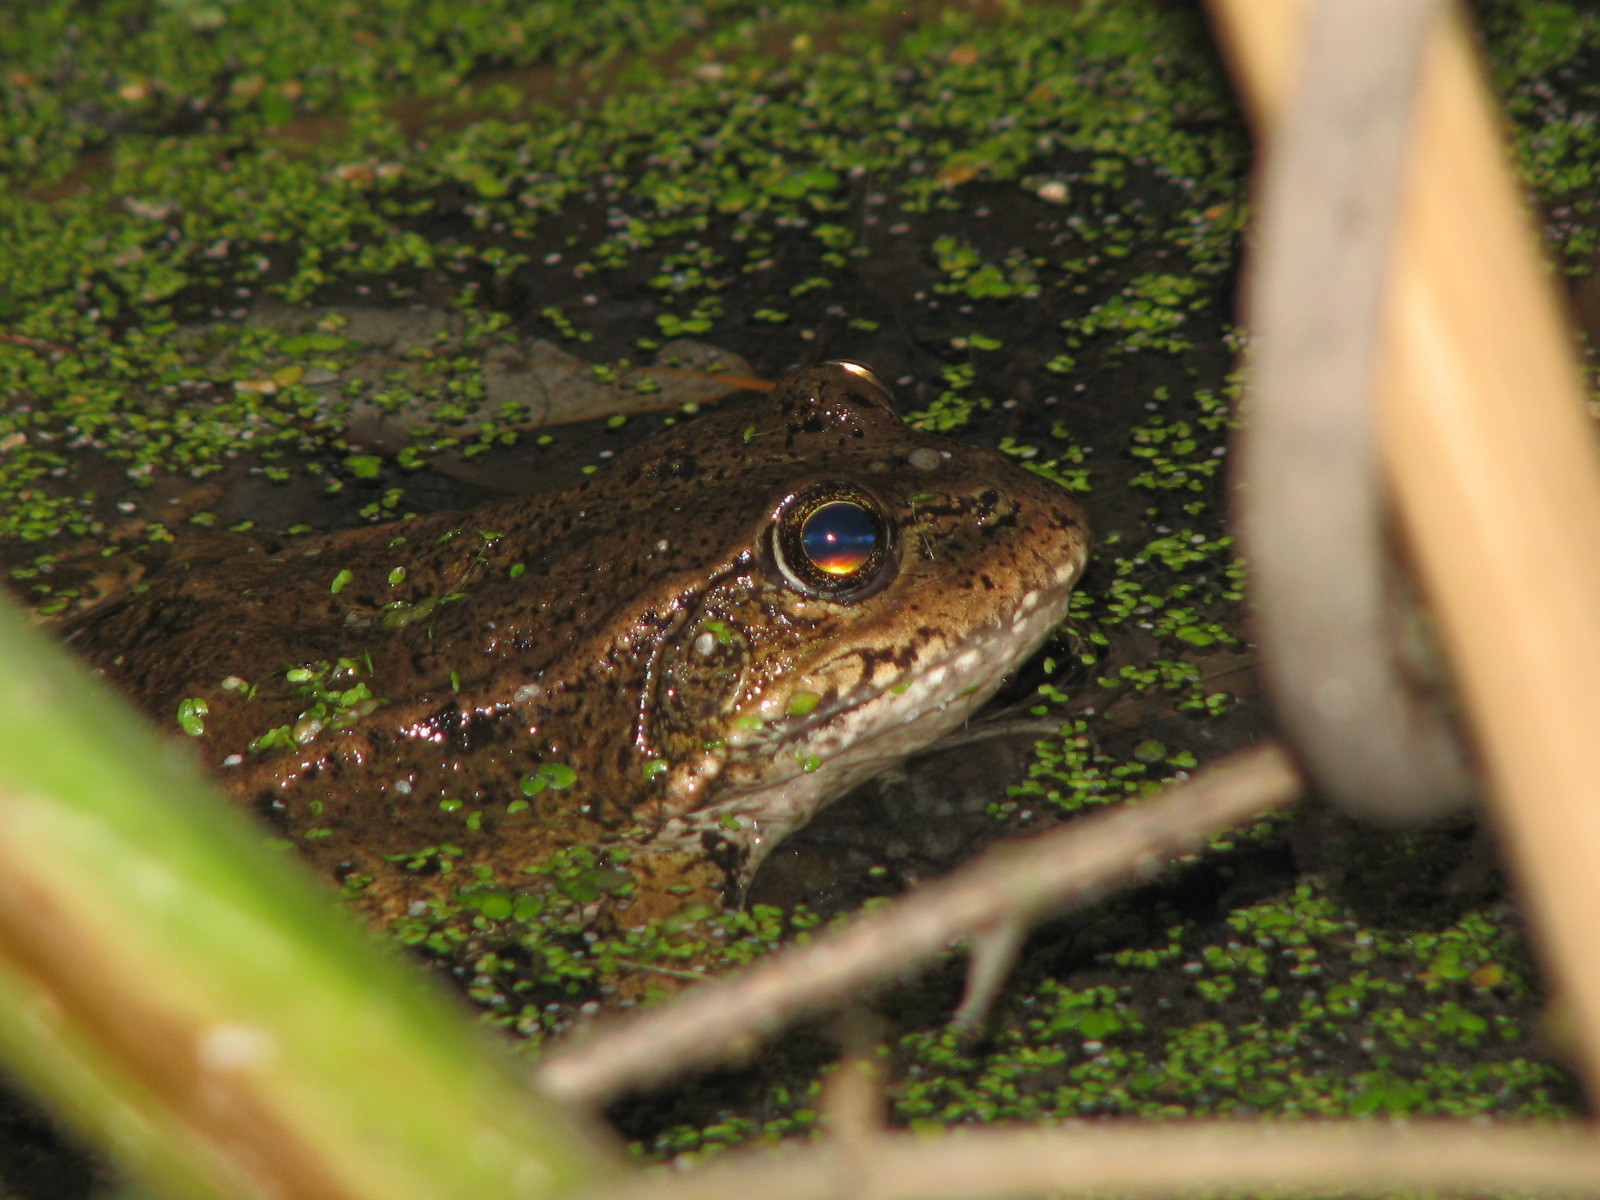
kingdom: Animalia
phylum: Chordata
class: Amphibia
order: Anura
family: Ranidae
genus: Rana
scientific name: Rana draytonii
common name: California red-legged frog
